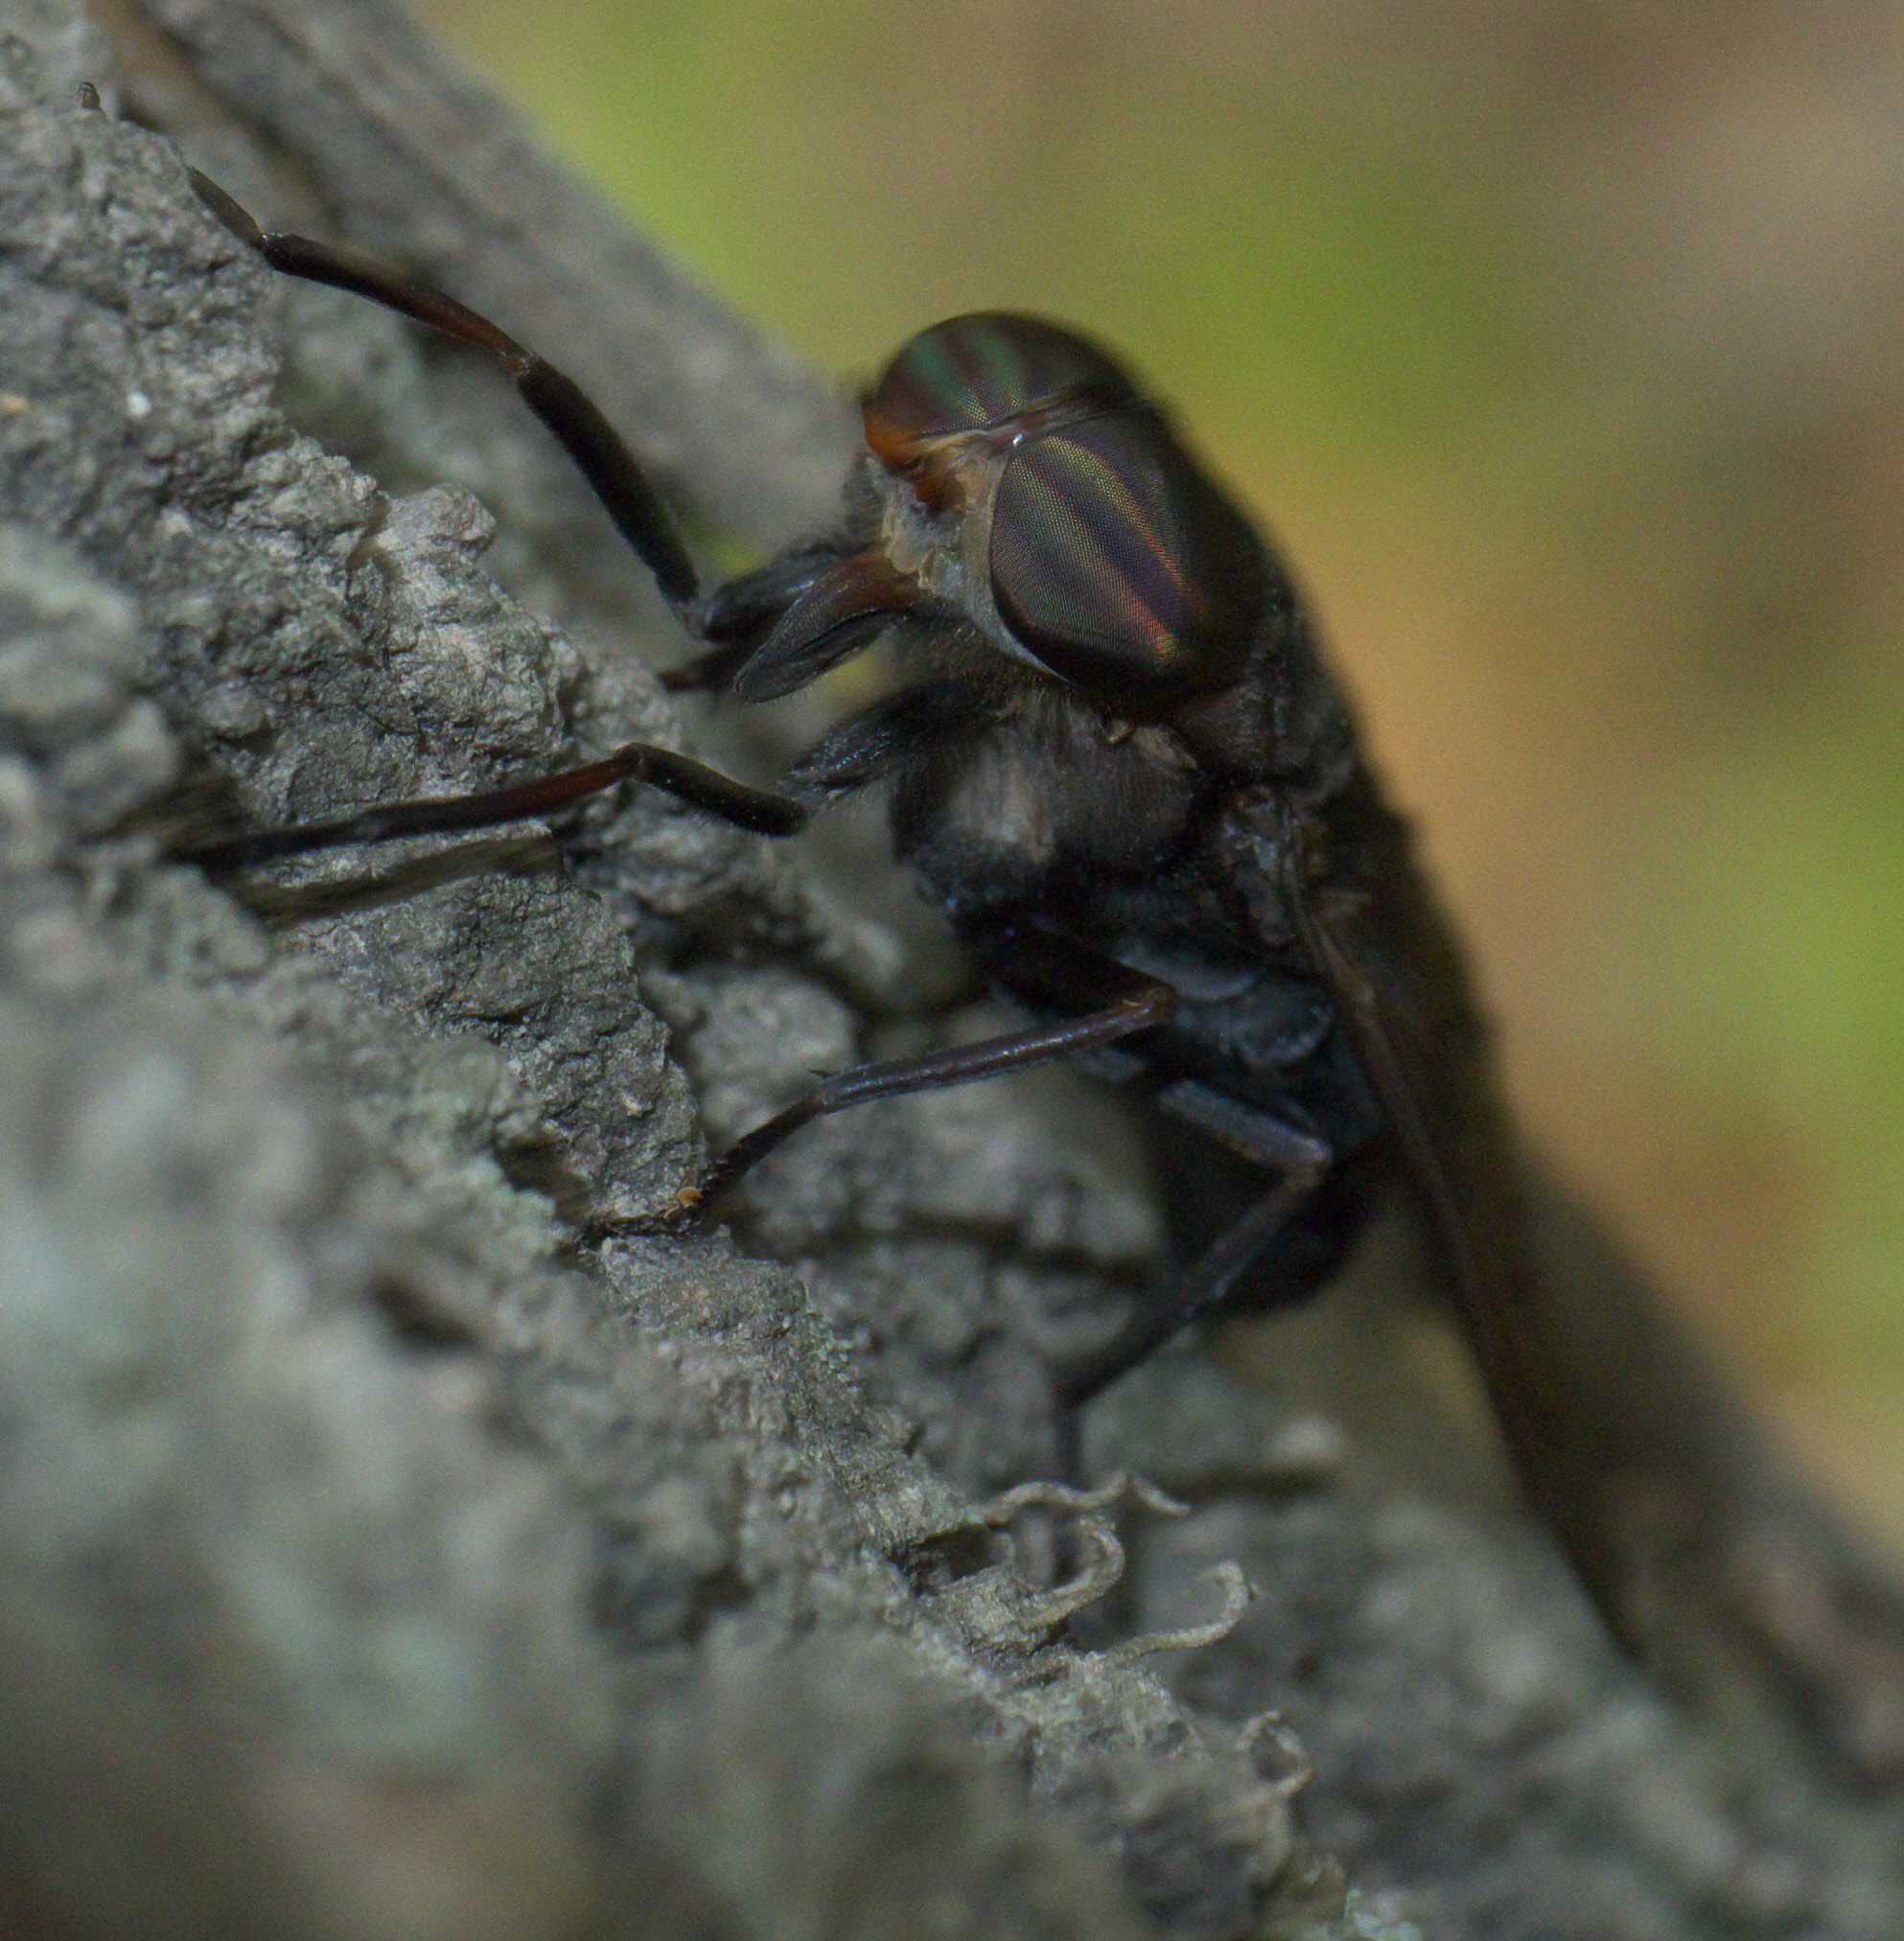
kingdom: Animalia
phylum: Arthropoda
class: Insecta
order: Diptera
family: Tabanidae
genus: Tabanus
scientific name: Tabanus proximus
